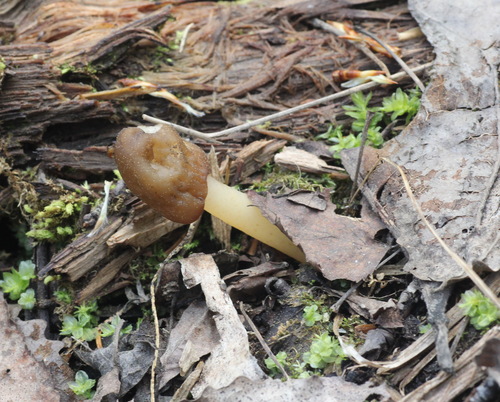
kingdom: Fungi
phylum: Ascomycota
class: Pezizomycetes
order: Pezizales
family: Morchellaceae
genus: Verpa
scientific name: Verpa conica
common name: Thimble morel
